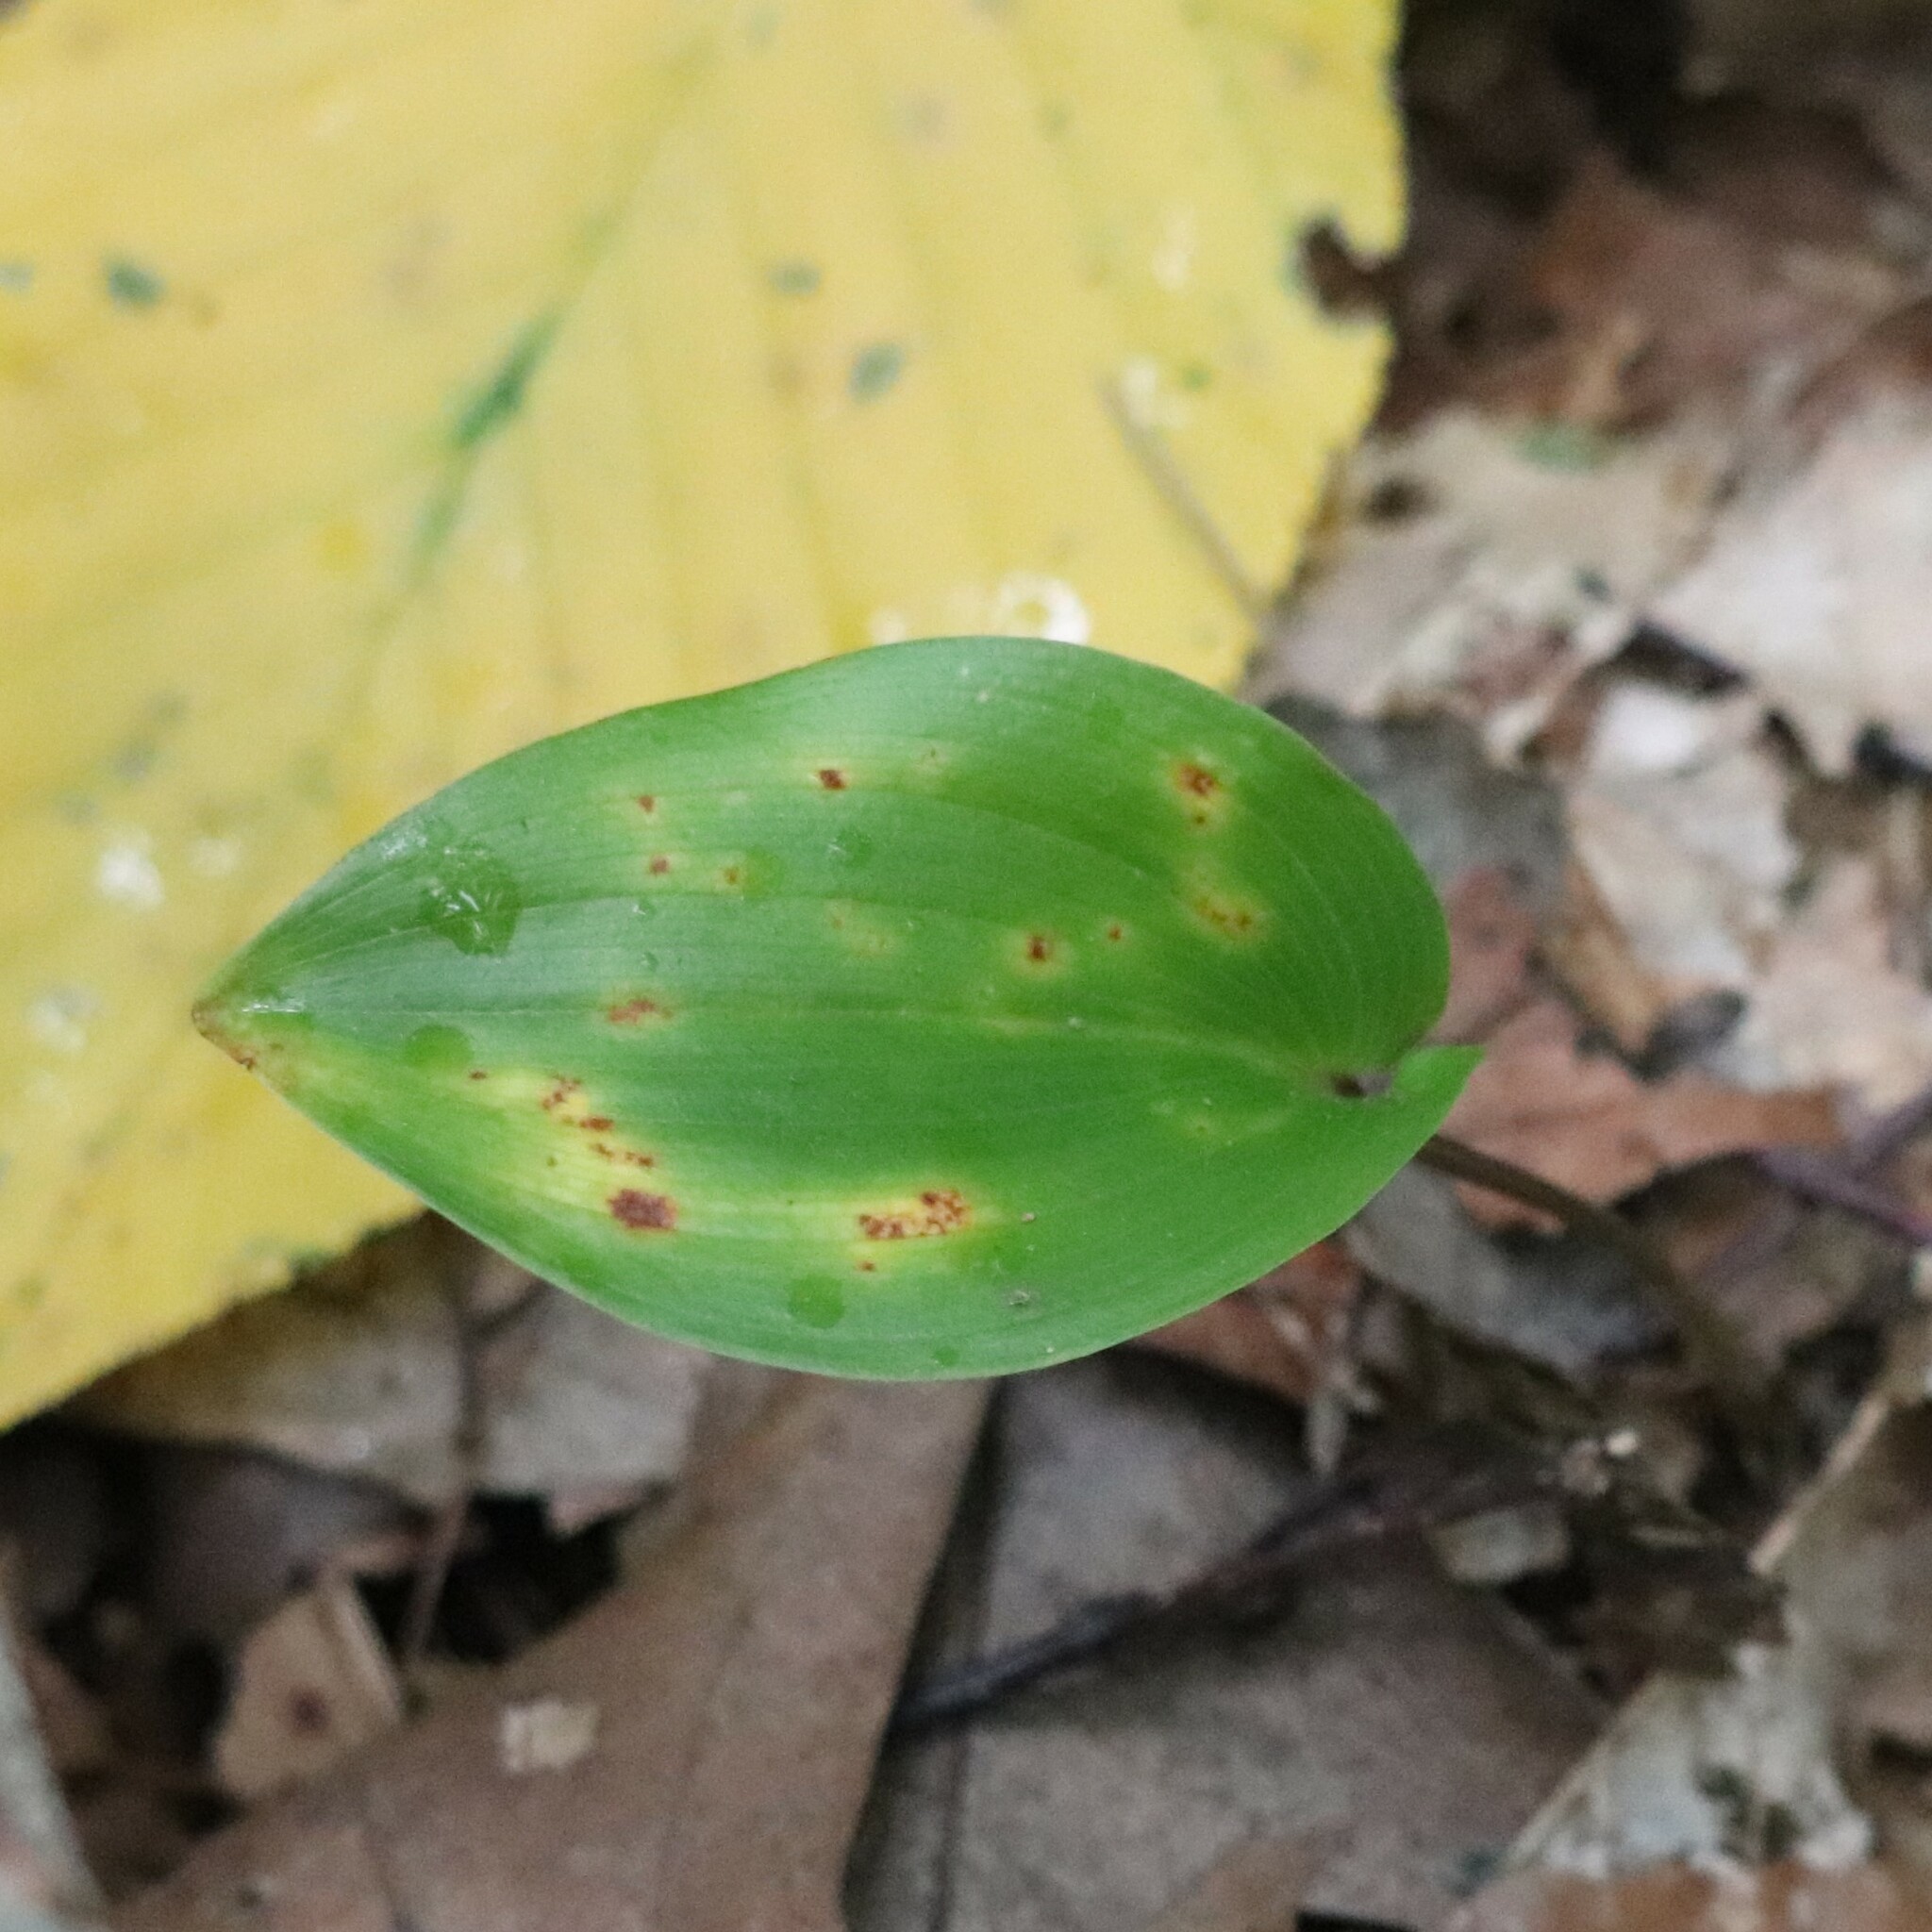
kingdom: Plantae
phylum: Tracheophyta
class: Liliopsida
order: Asparagales
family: Asparagaceae
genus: Maianthemum
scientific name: Maianthemum canadense
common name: False lily-of-the-valley
